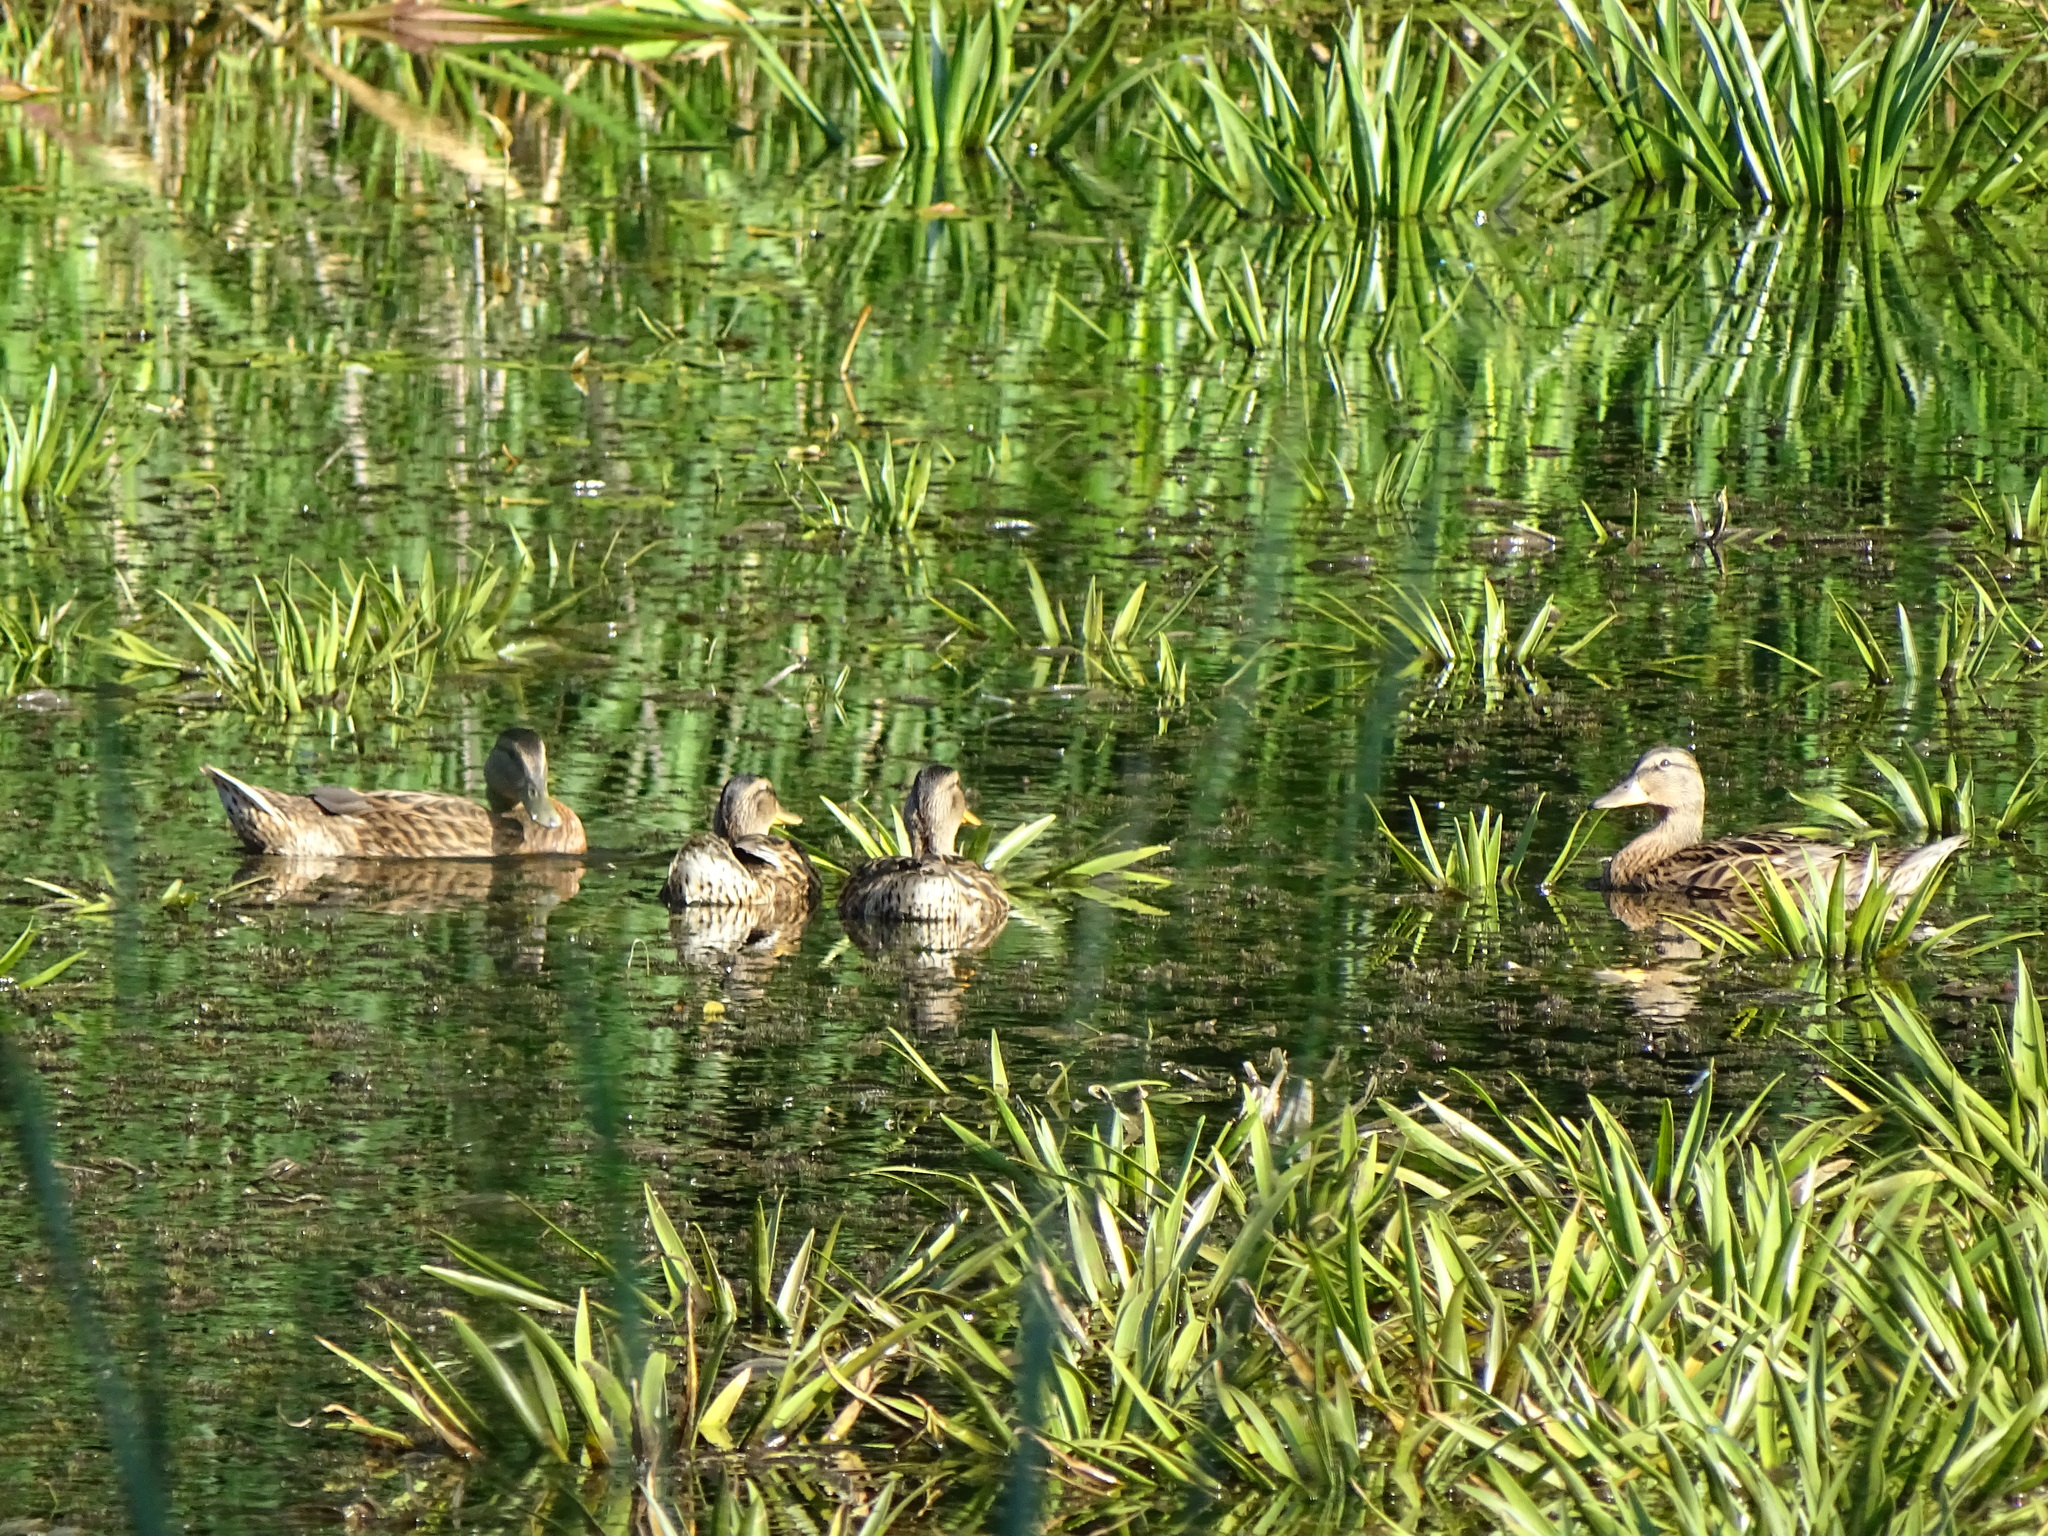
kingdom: Animalia
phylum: Chordata
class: Aves
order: Anseriformes
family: Anatidae
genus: Anas
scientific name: Anas platyrhynchos
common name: Mallard
